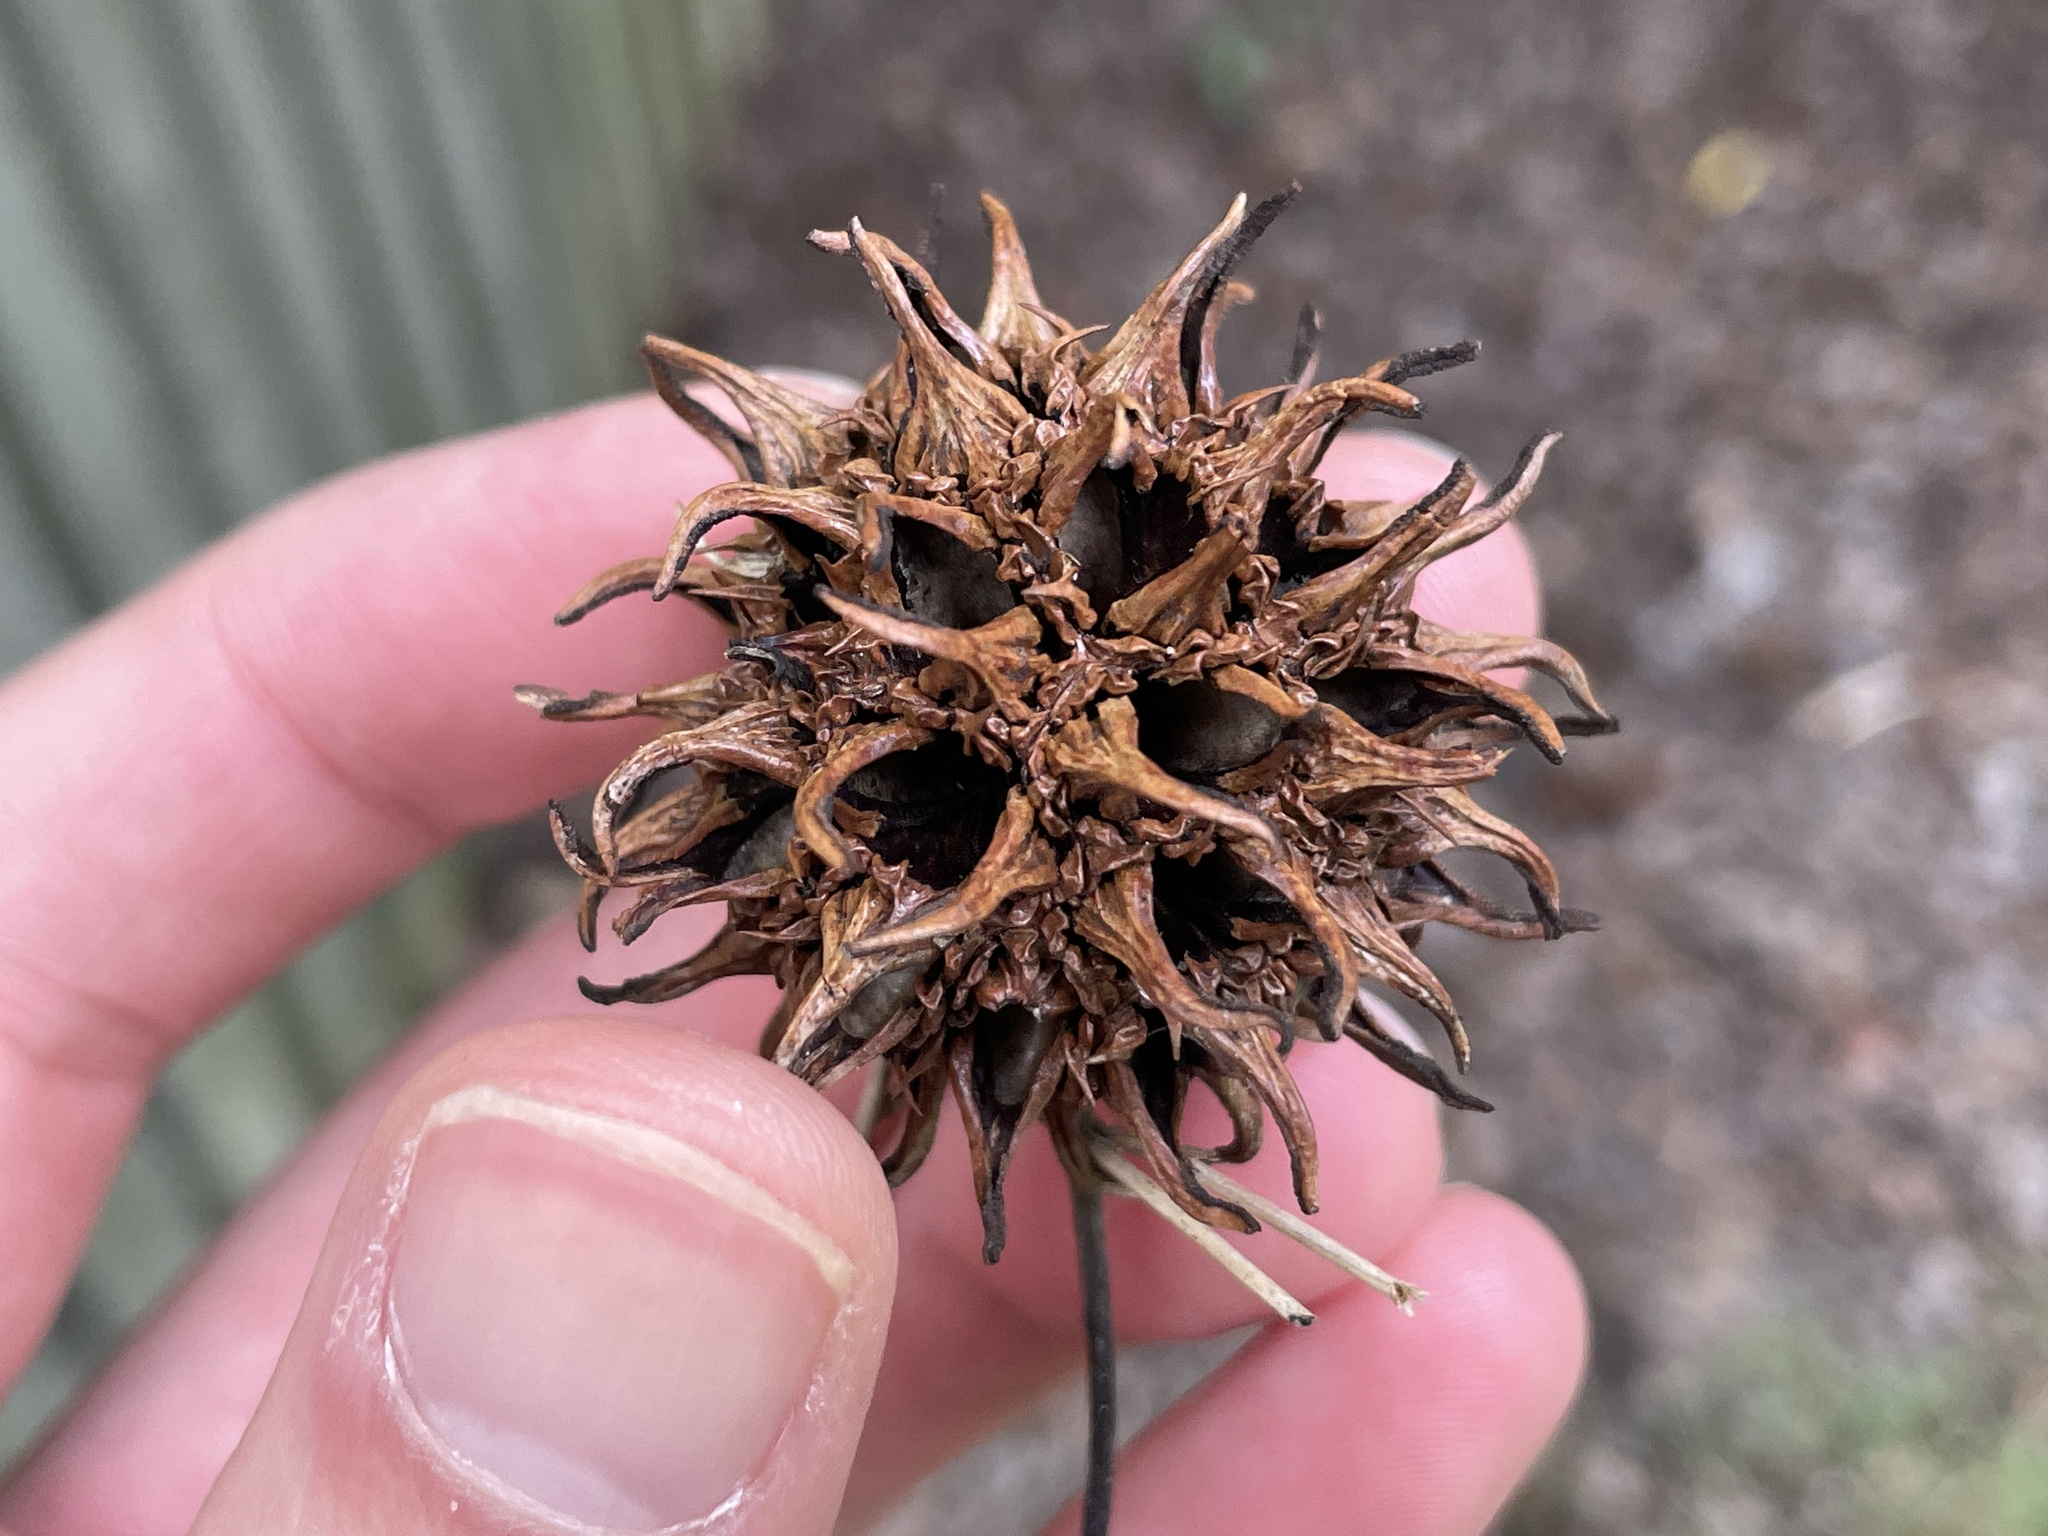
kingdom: Plantae
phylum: Tracheophyta
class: Magnoliopsida
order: Saxifragales
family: Altingiaceae
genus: Liquidambar
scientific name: Liquidambar styraciflua
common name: Sweet gum
